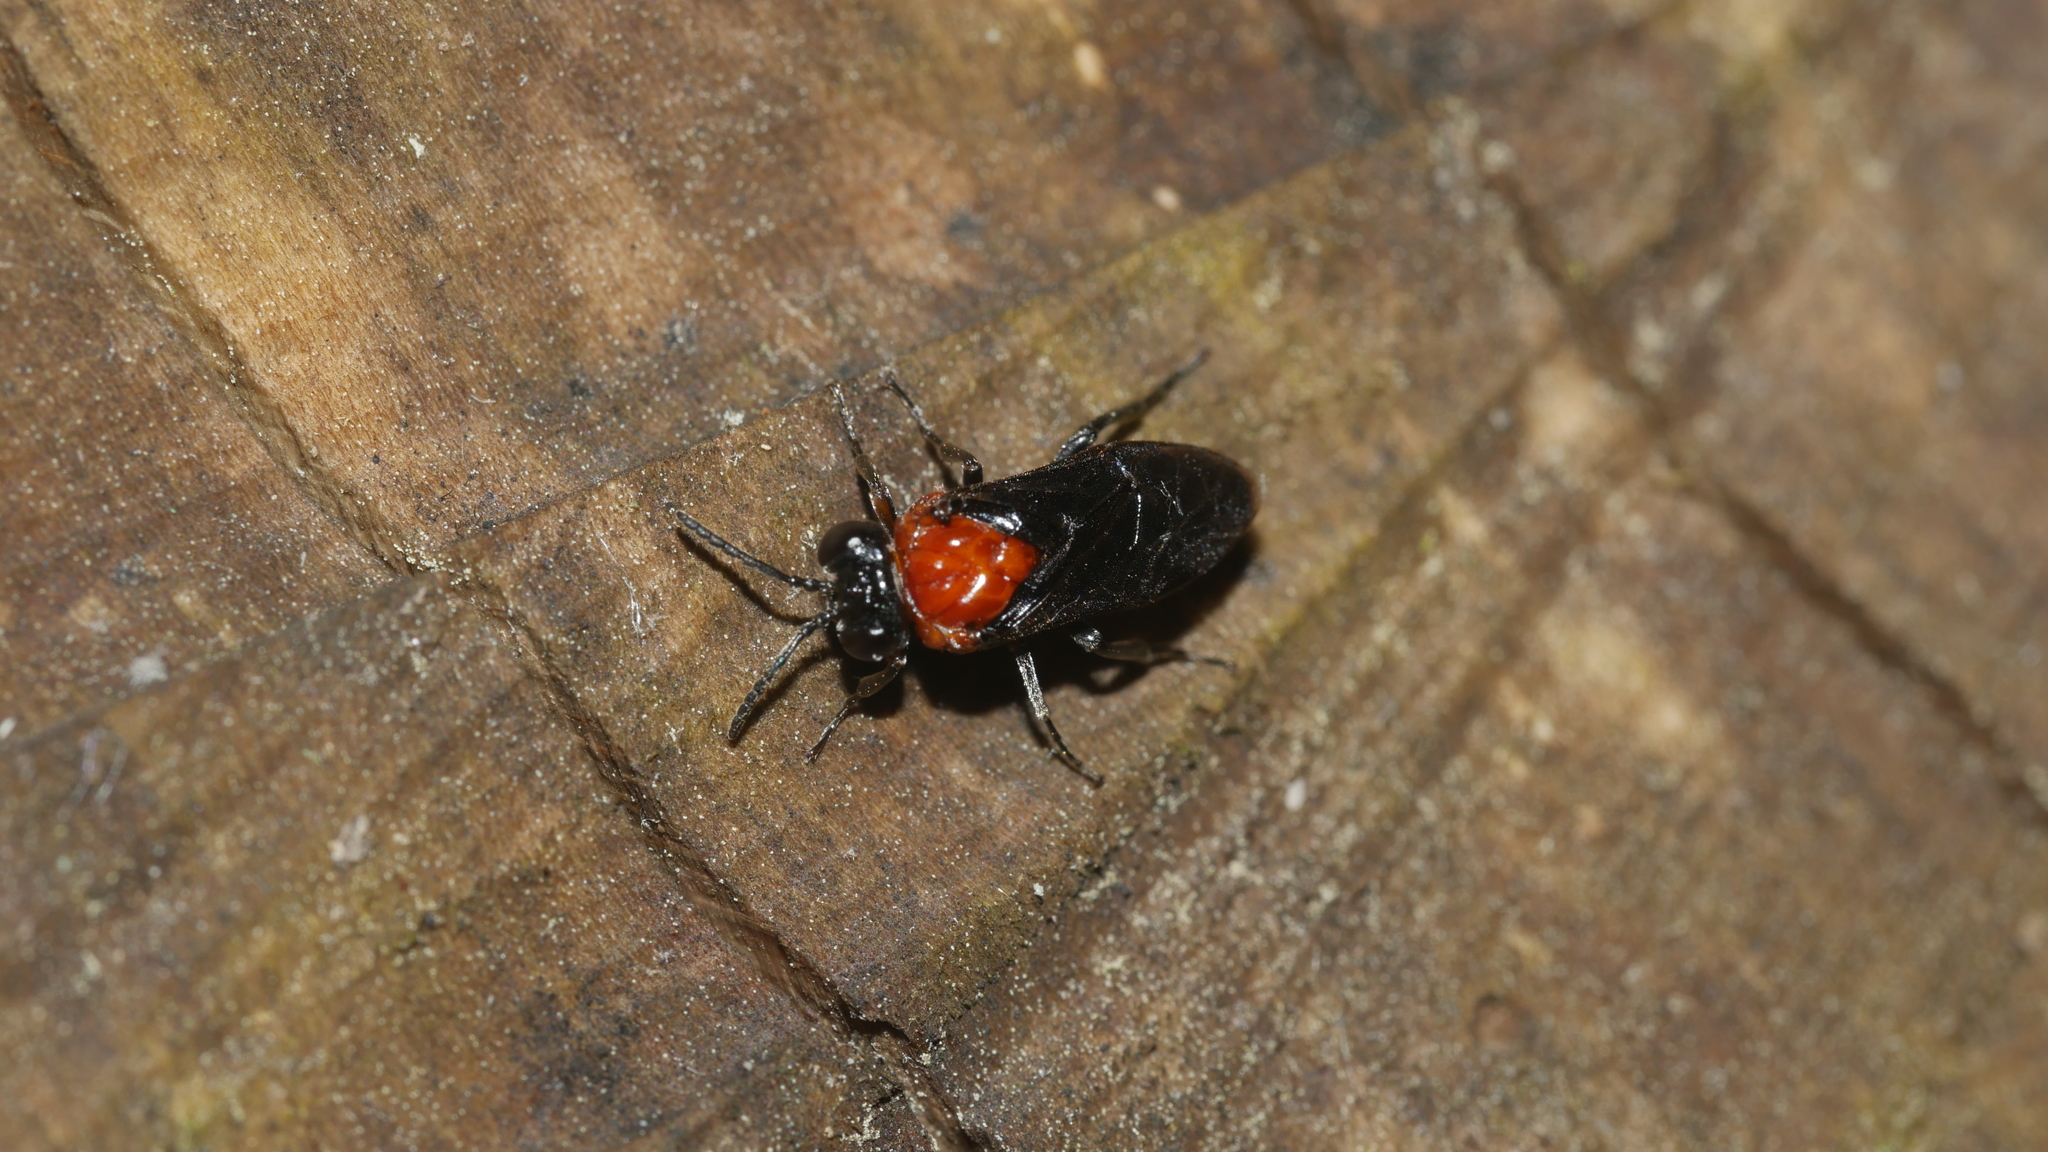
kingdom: Animalia
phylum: Arthropoda
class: Insecta
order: Hymenoptera
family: Tenthredinidae
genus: Tethida
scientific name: Tethida barda
